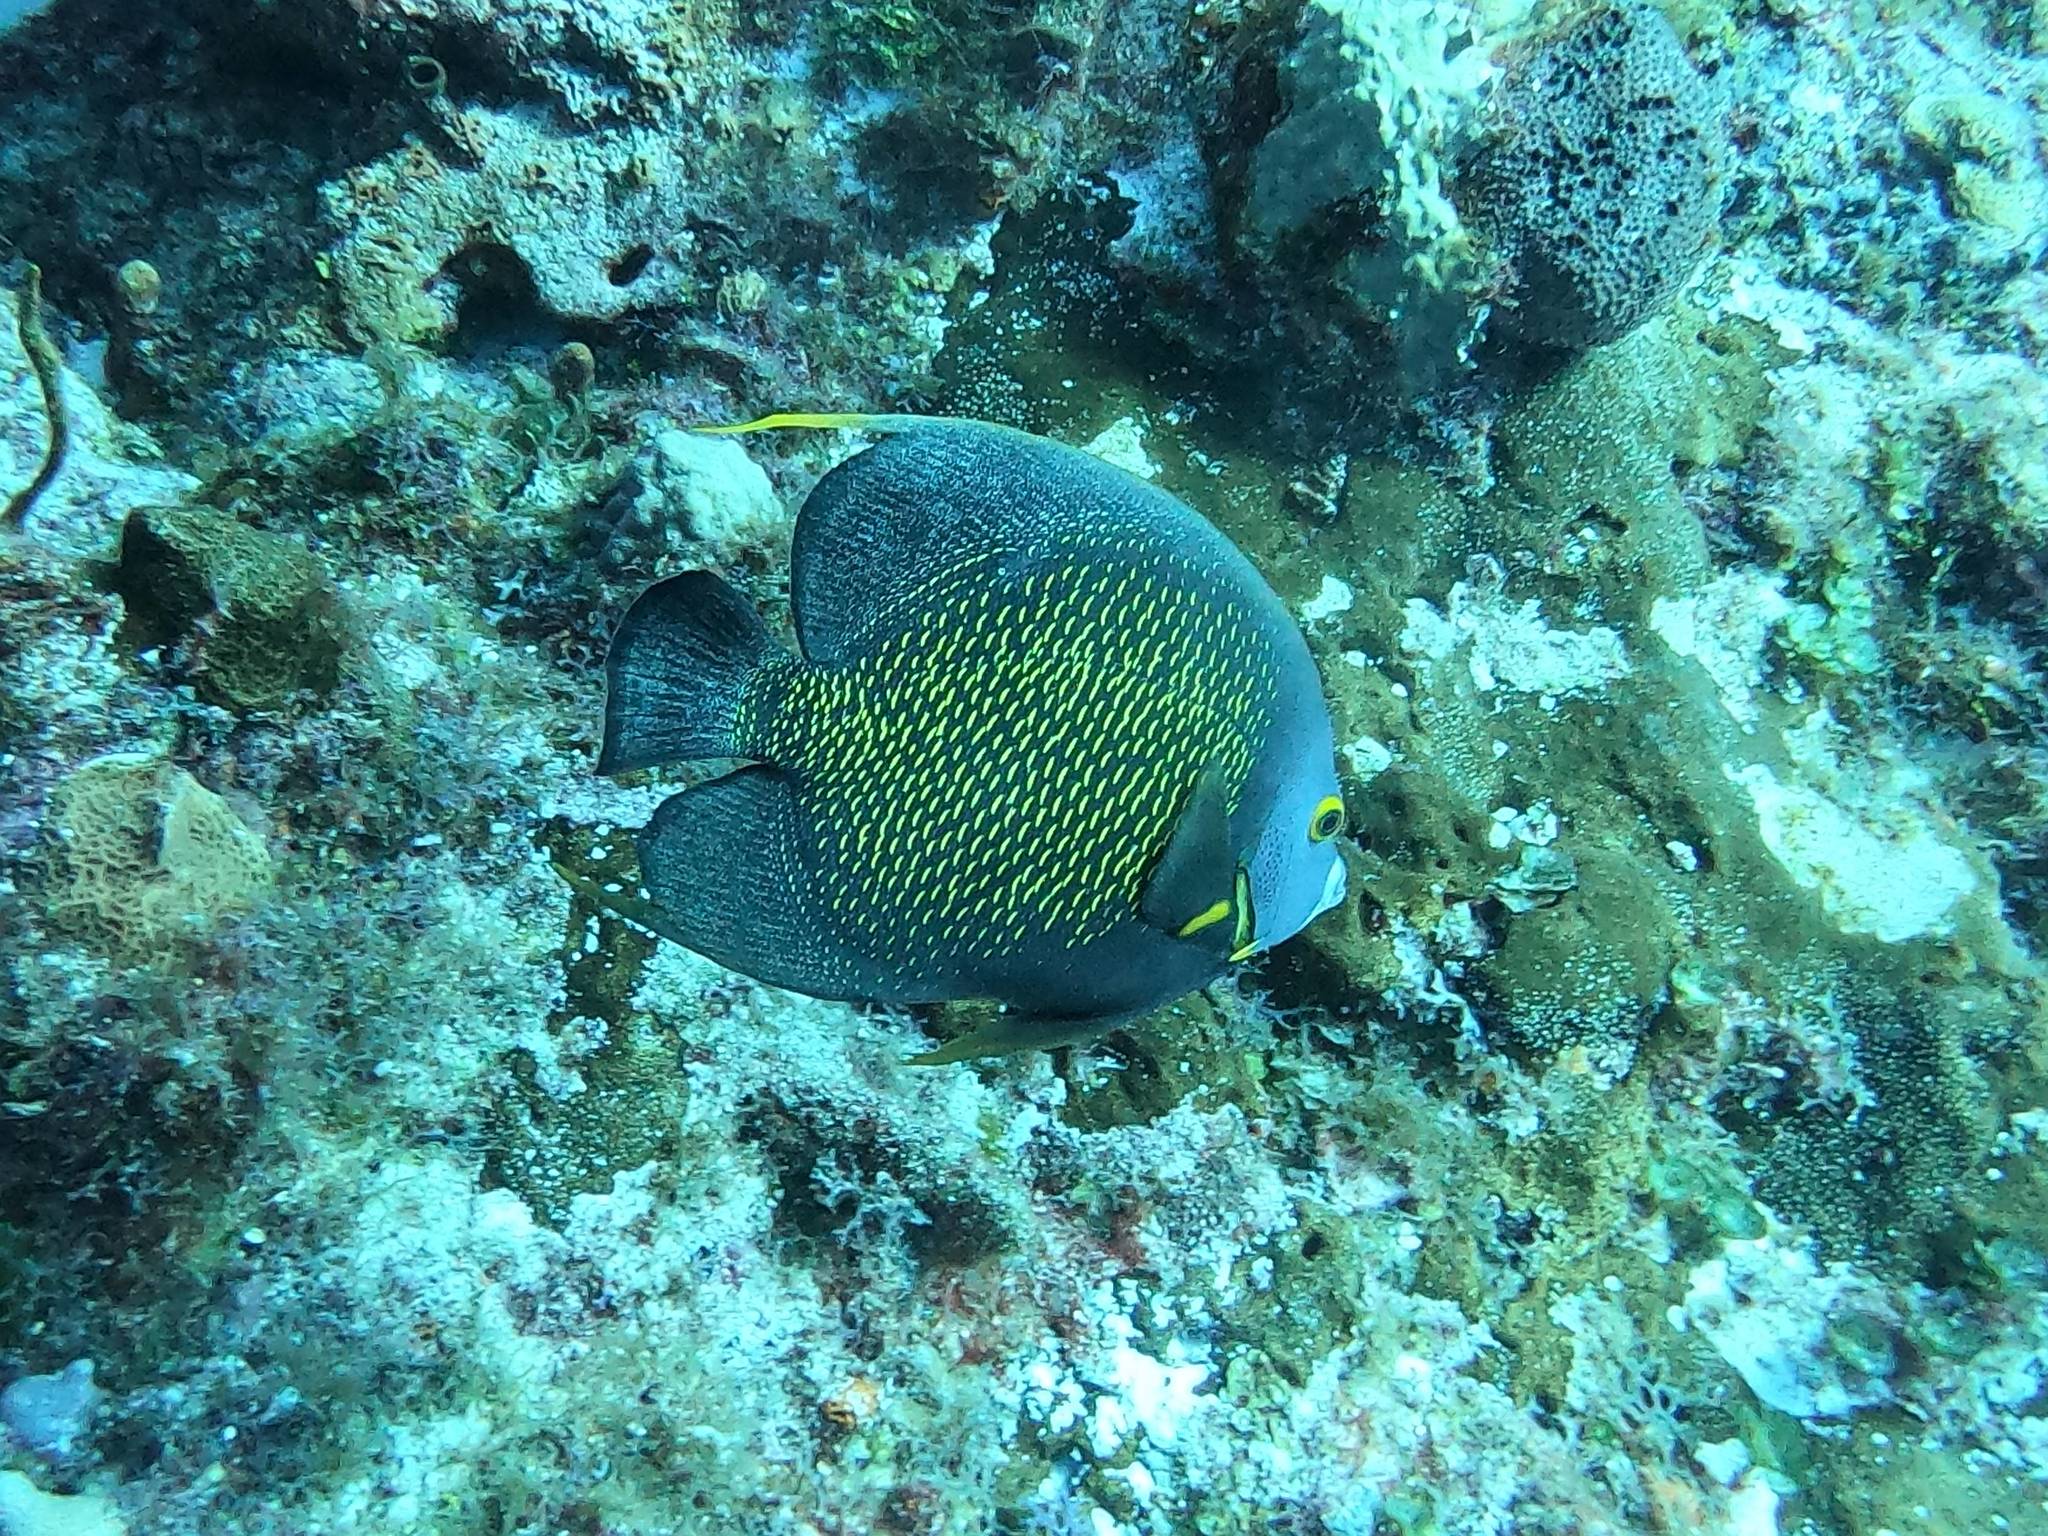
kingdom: Animalia
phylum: Chordata
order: Perciformes
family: Pomacanthidae
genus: Pomacanthus
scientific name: Pomacanthus paru
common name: French angelfish
